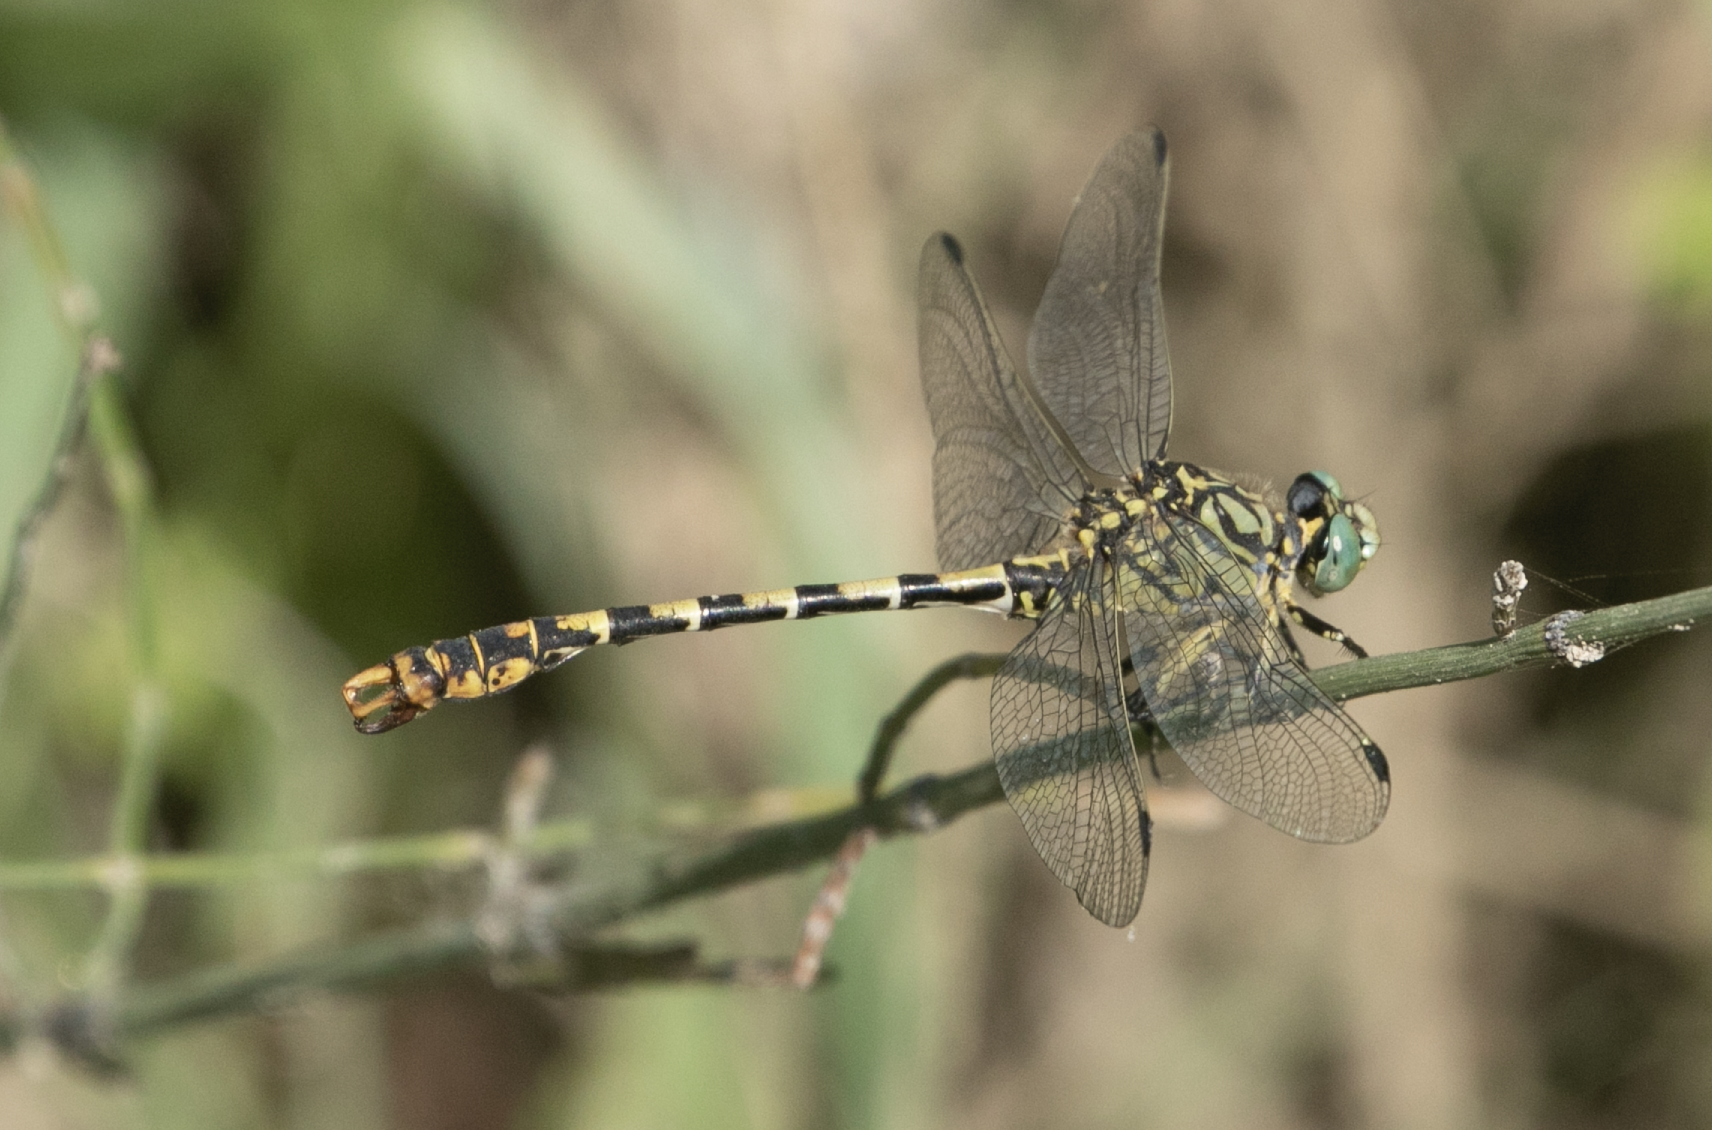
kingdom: Animalia
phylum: Arthropoda
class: Insecta
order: Odonata
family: Gomphidae
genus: Onychogomphus
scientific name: Onychogomphus forcipatus
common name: Small pincertail
